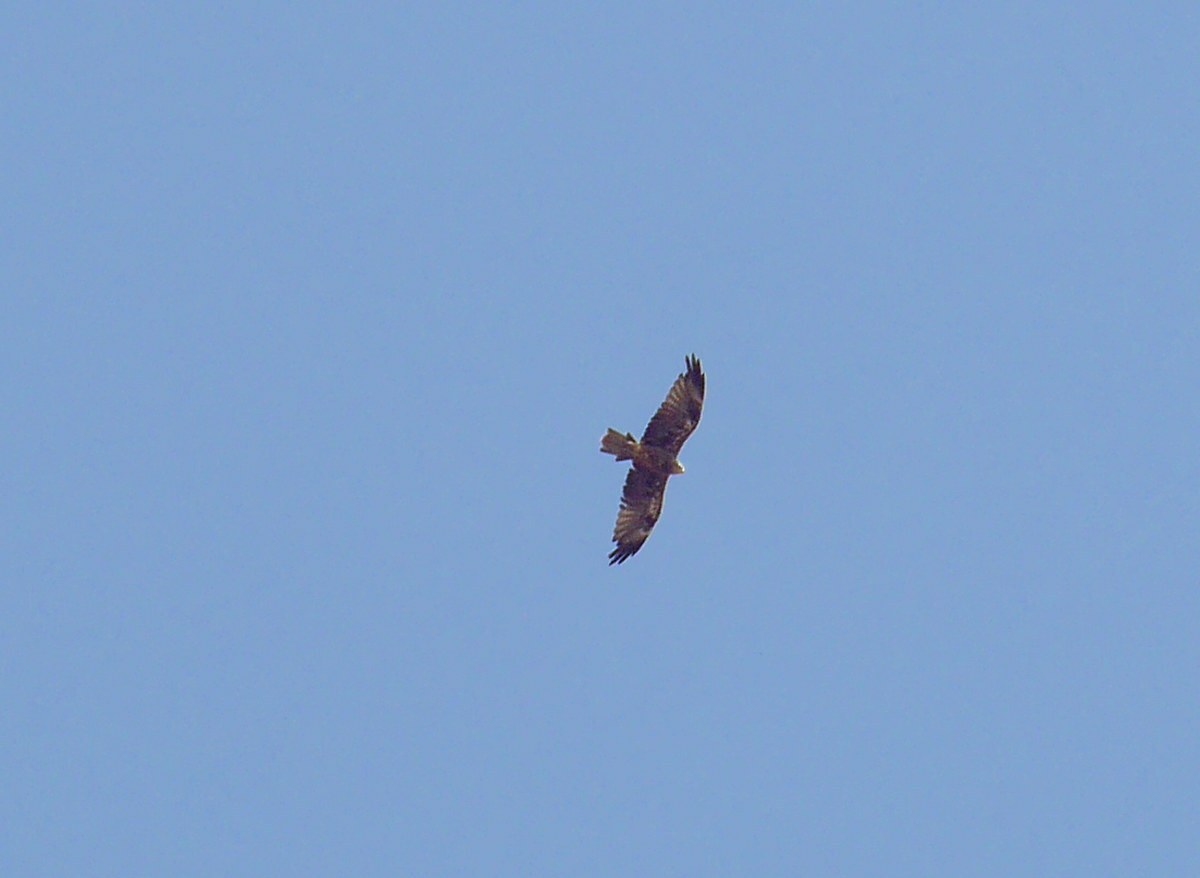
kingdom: Animalia
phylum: Chordata
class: Aves
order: Accipitriformes
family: Accipitridae
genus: Circus
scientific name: Circus aeruginosus
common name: Western marsh harrier
